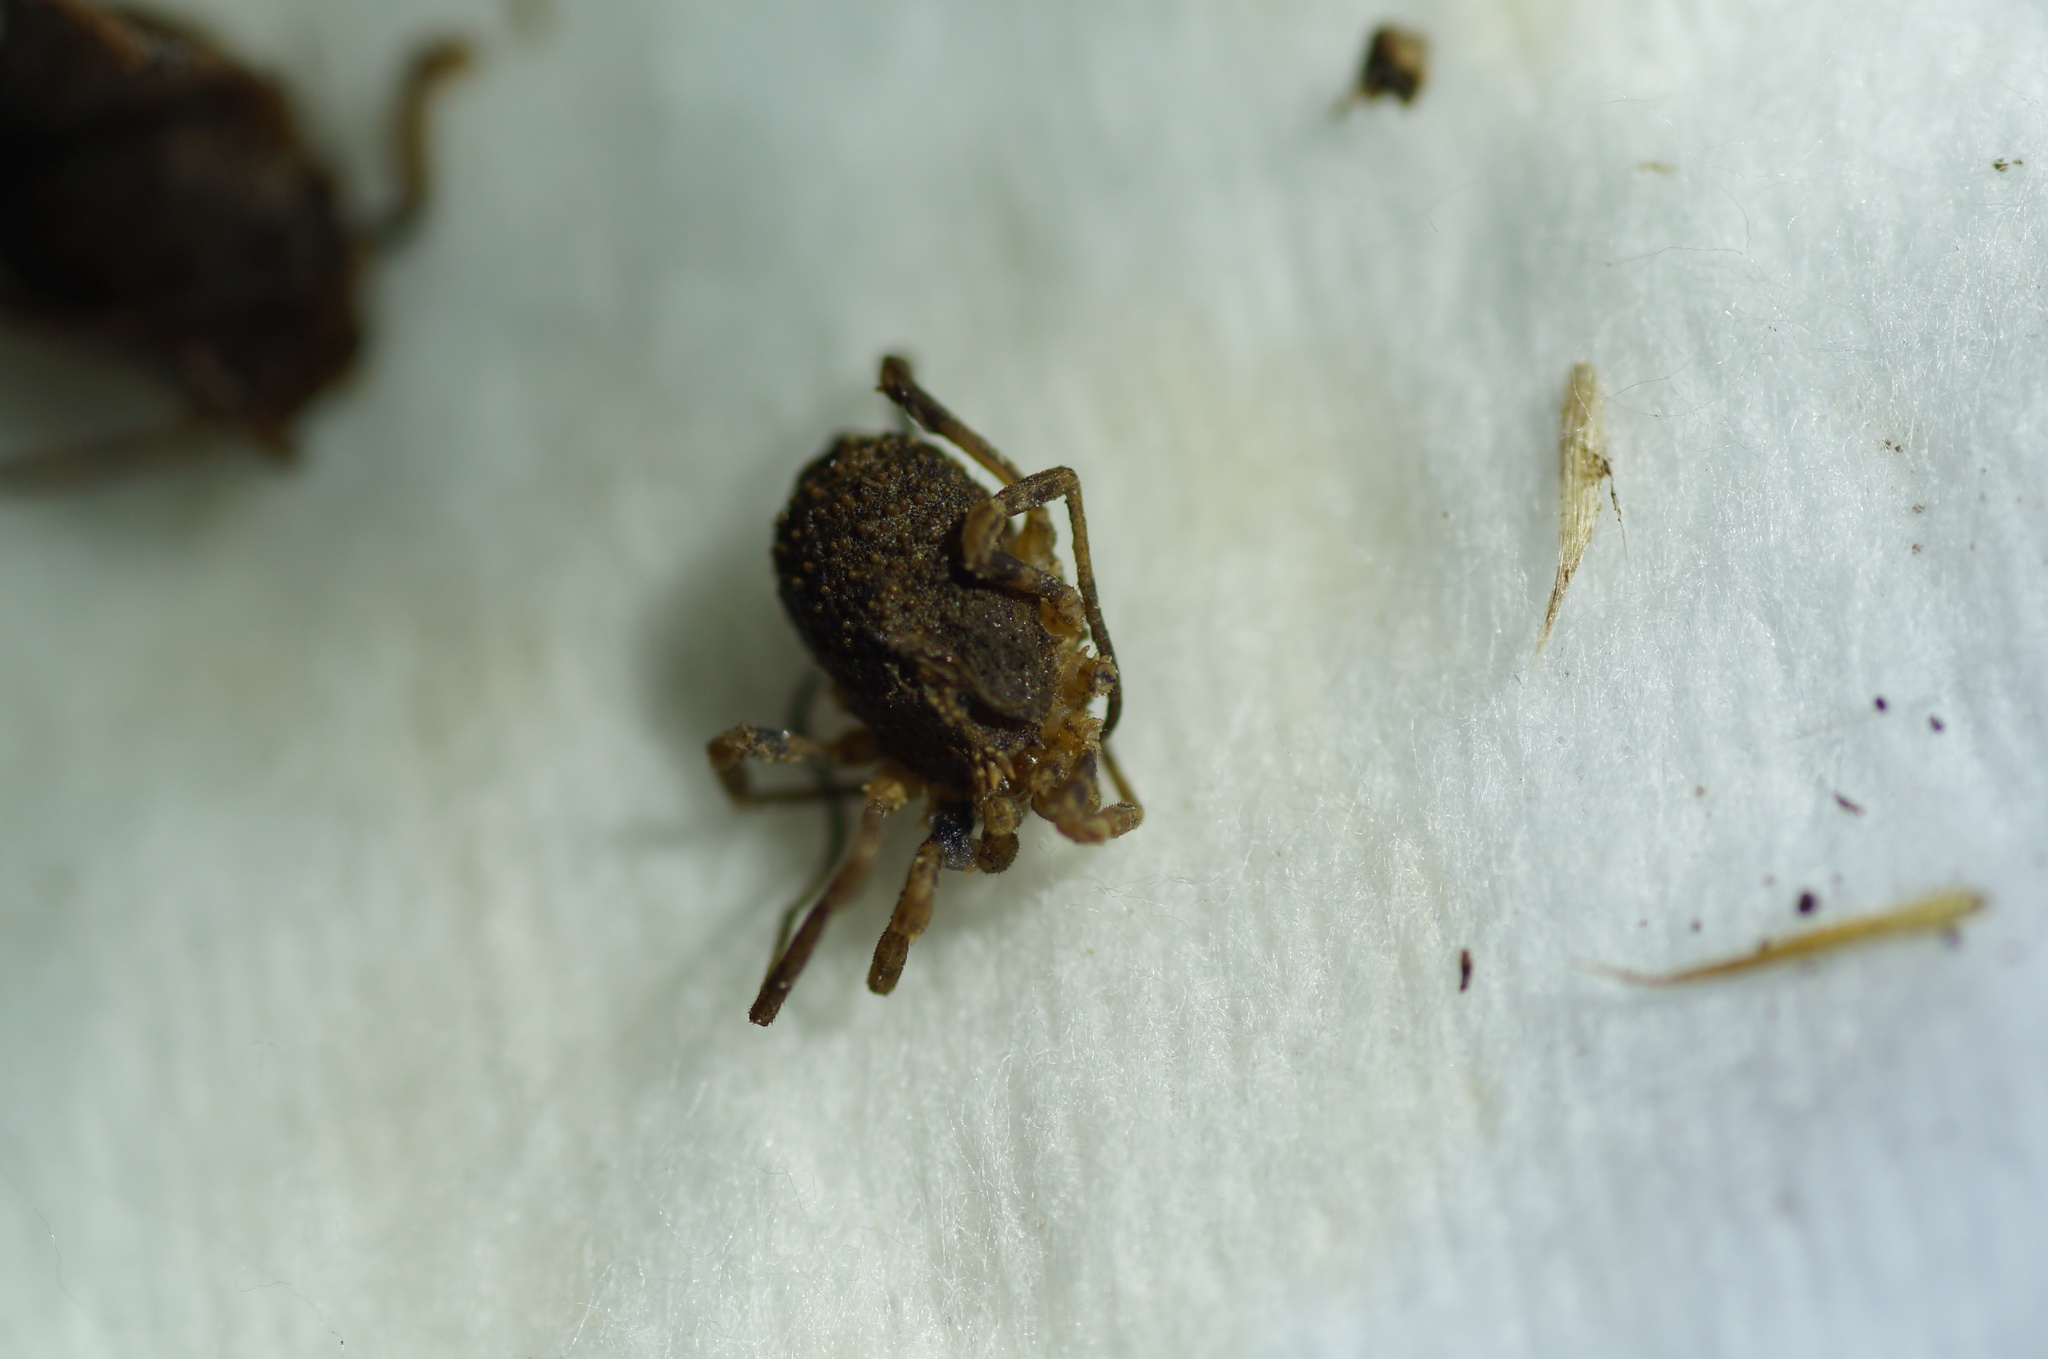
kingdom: Animalia
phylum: Arthropoda
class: Arachnida
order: Opiliones
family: Phalangiidae
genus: Odiellus
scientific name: Odiellus lendlii
